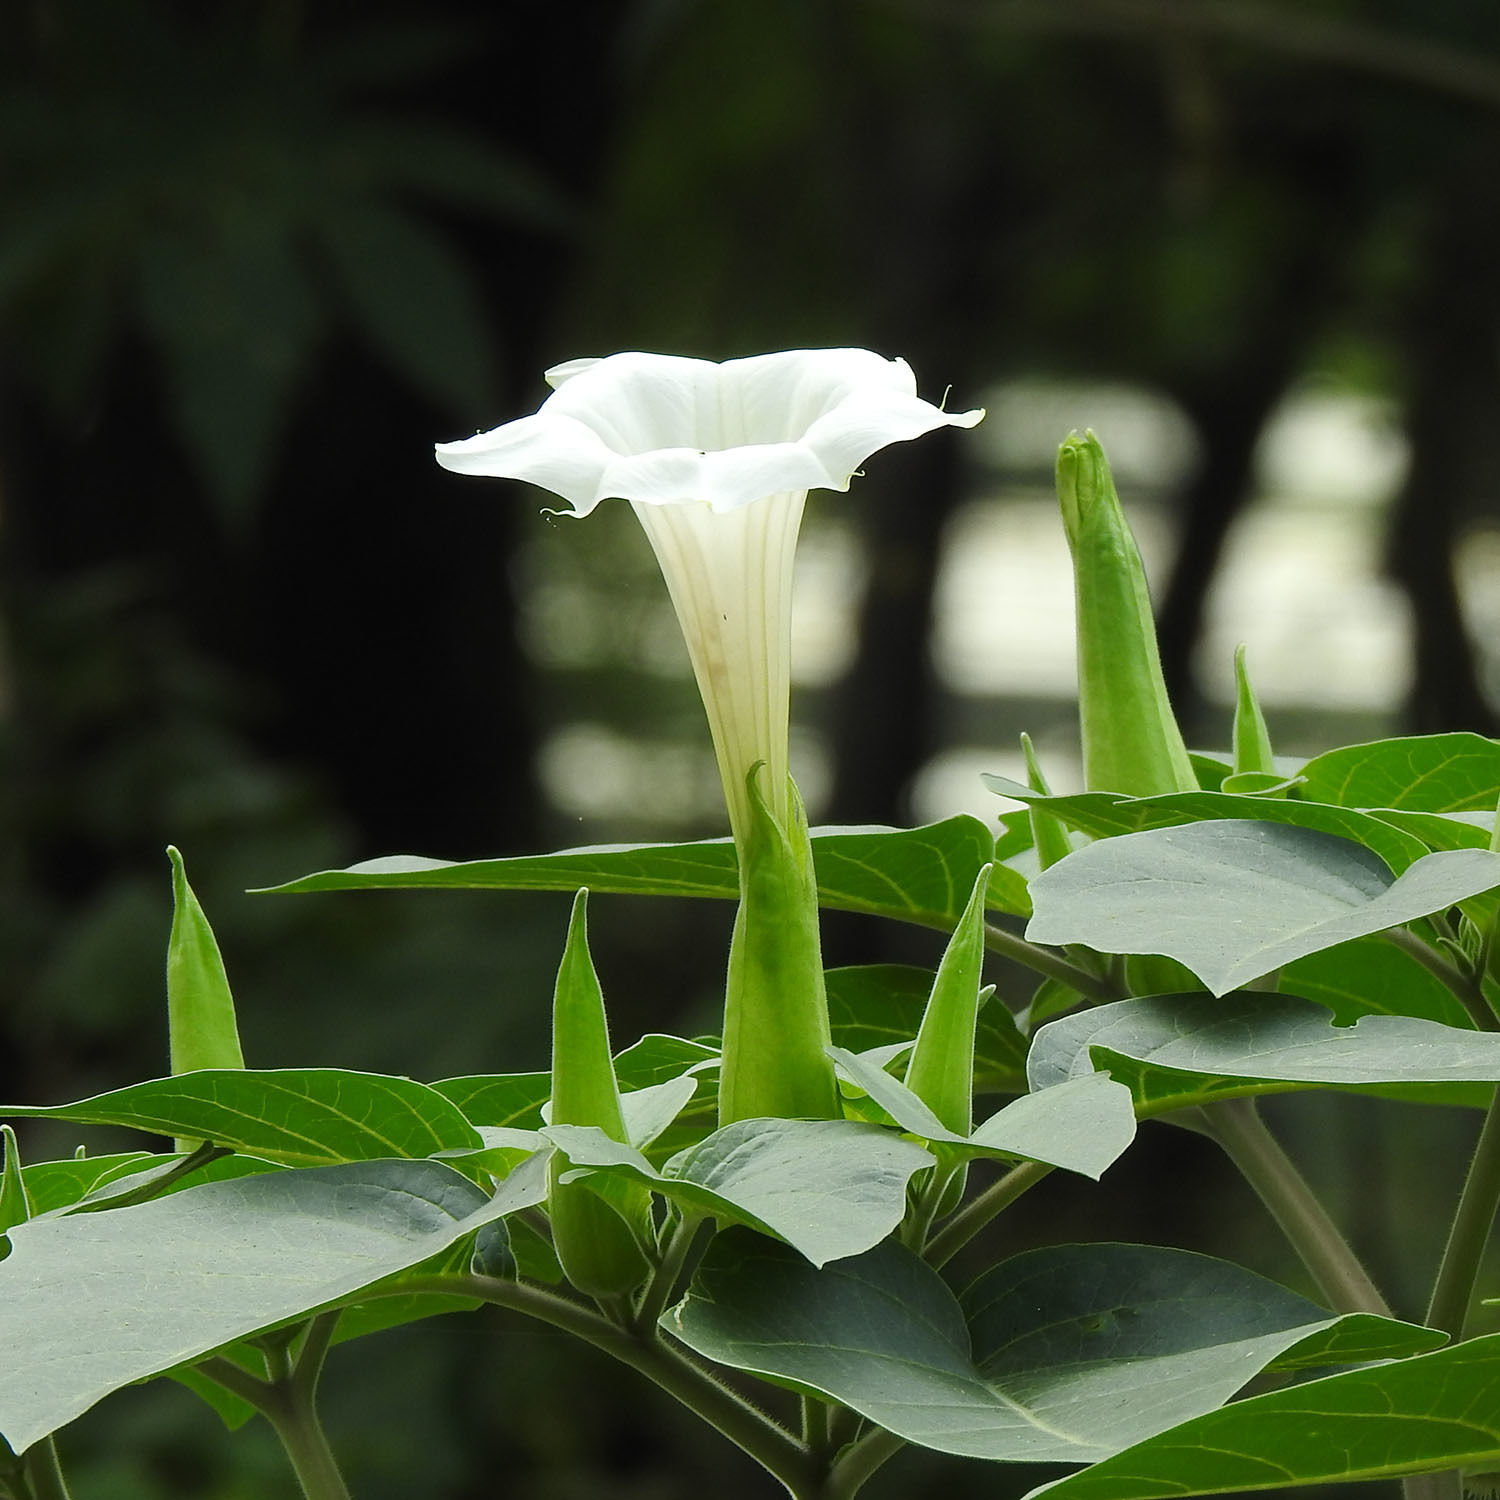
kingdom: Plantae
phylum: Tracheophyta
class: Magnoliopsida
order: Solanales
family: Solanaceae
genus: Datura
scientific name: Datura innoxia
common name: Downy thorn-apple
